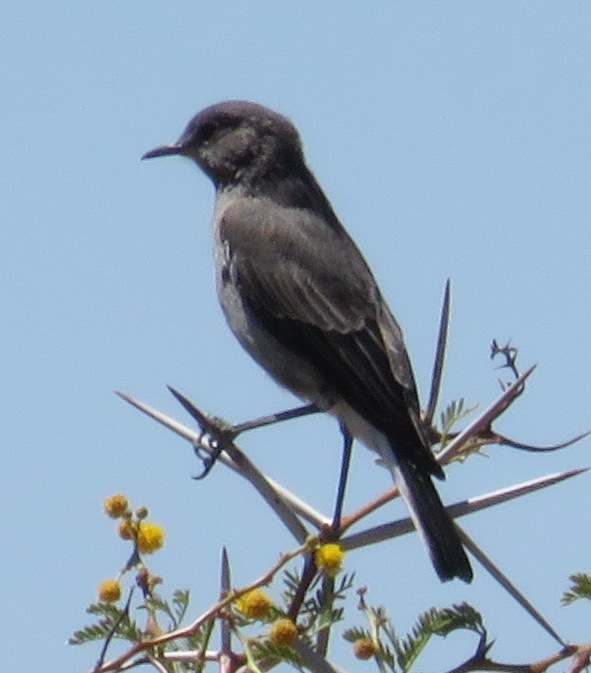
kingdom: Animalia
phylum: Chordata
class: Aves
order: Passeriformes
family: Muscicapidae
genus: Emarginata
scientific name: Emarginata schlegelii
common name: Karoo chat
